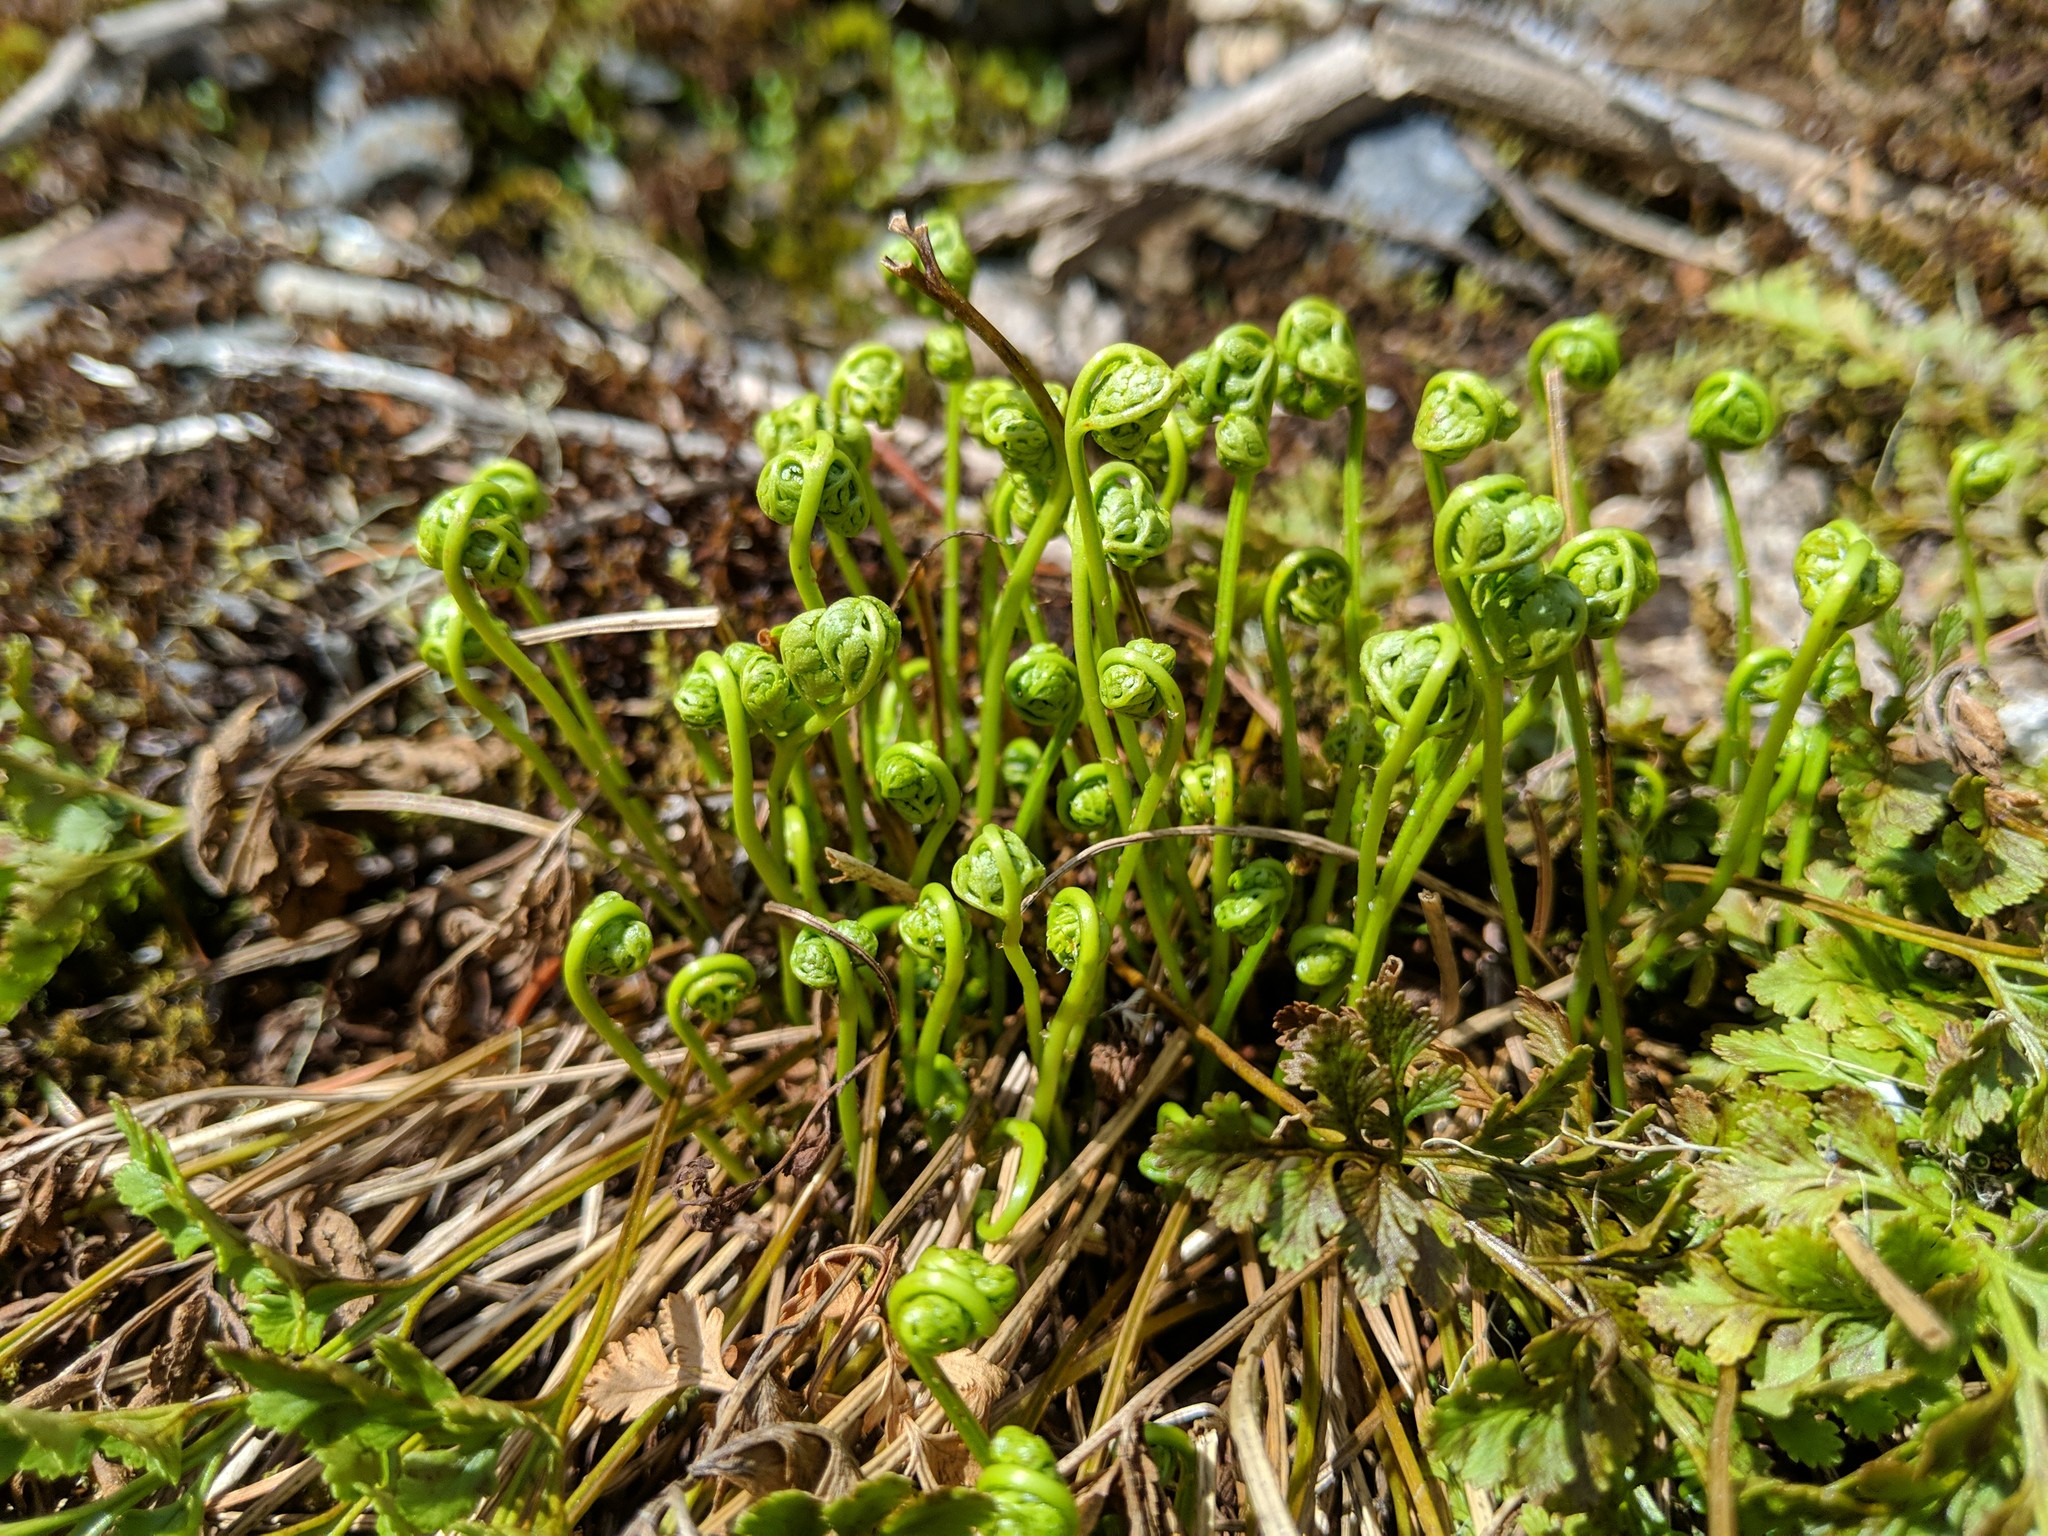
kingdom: Plantae
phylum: Tracheophyta
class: Polypodiopsida
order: Polypodiales
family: Pteridaceae
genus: Cryptogramma
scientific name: Cryptogramma acrostichoides
